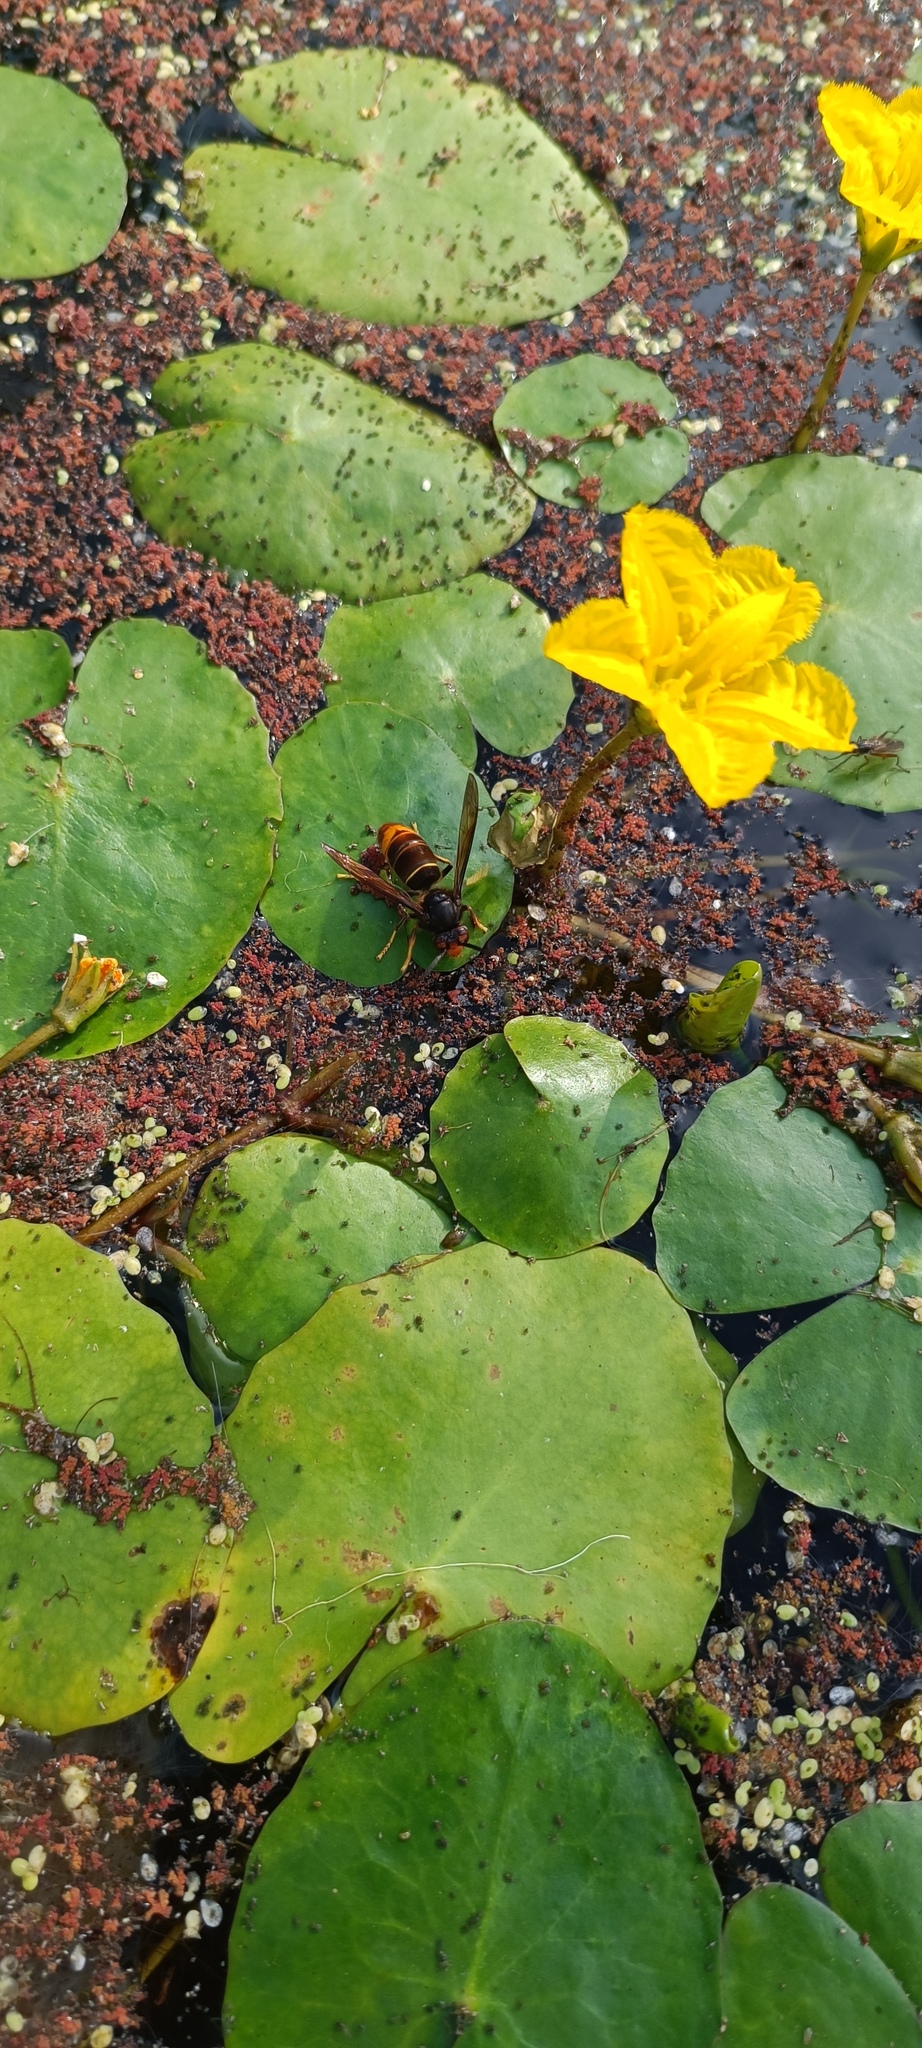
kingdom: Animalia
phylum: Arthropoda
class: Insecta
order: Hymenoptera
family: Vespidae
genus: Vespa
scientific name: Vespa velutina
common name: Asian hornet
